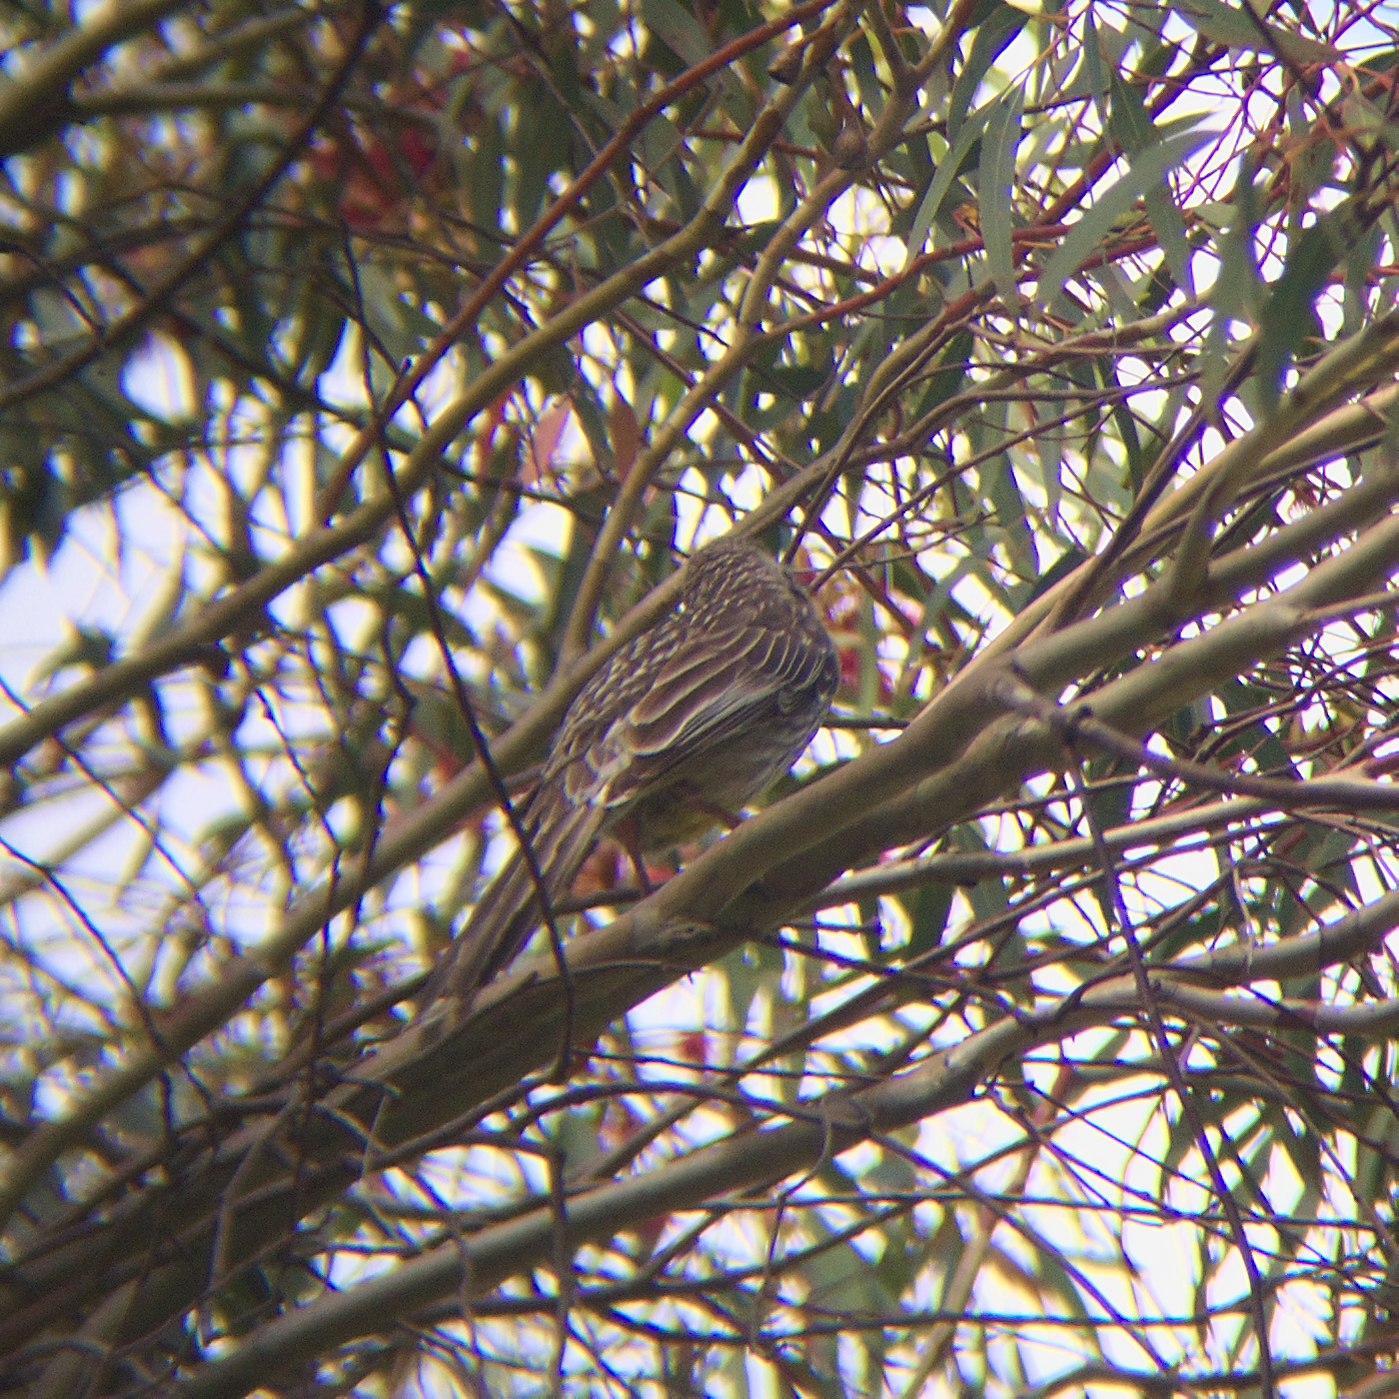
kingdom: Animalia
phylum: Chordata
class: Aves
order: Passeriformes
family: Meliphagidae
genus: Anthochaera
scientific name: Anthochaera carunculata
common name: Red wattlebird
